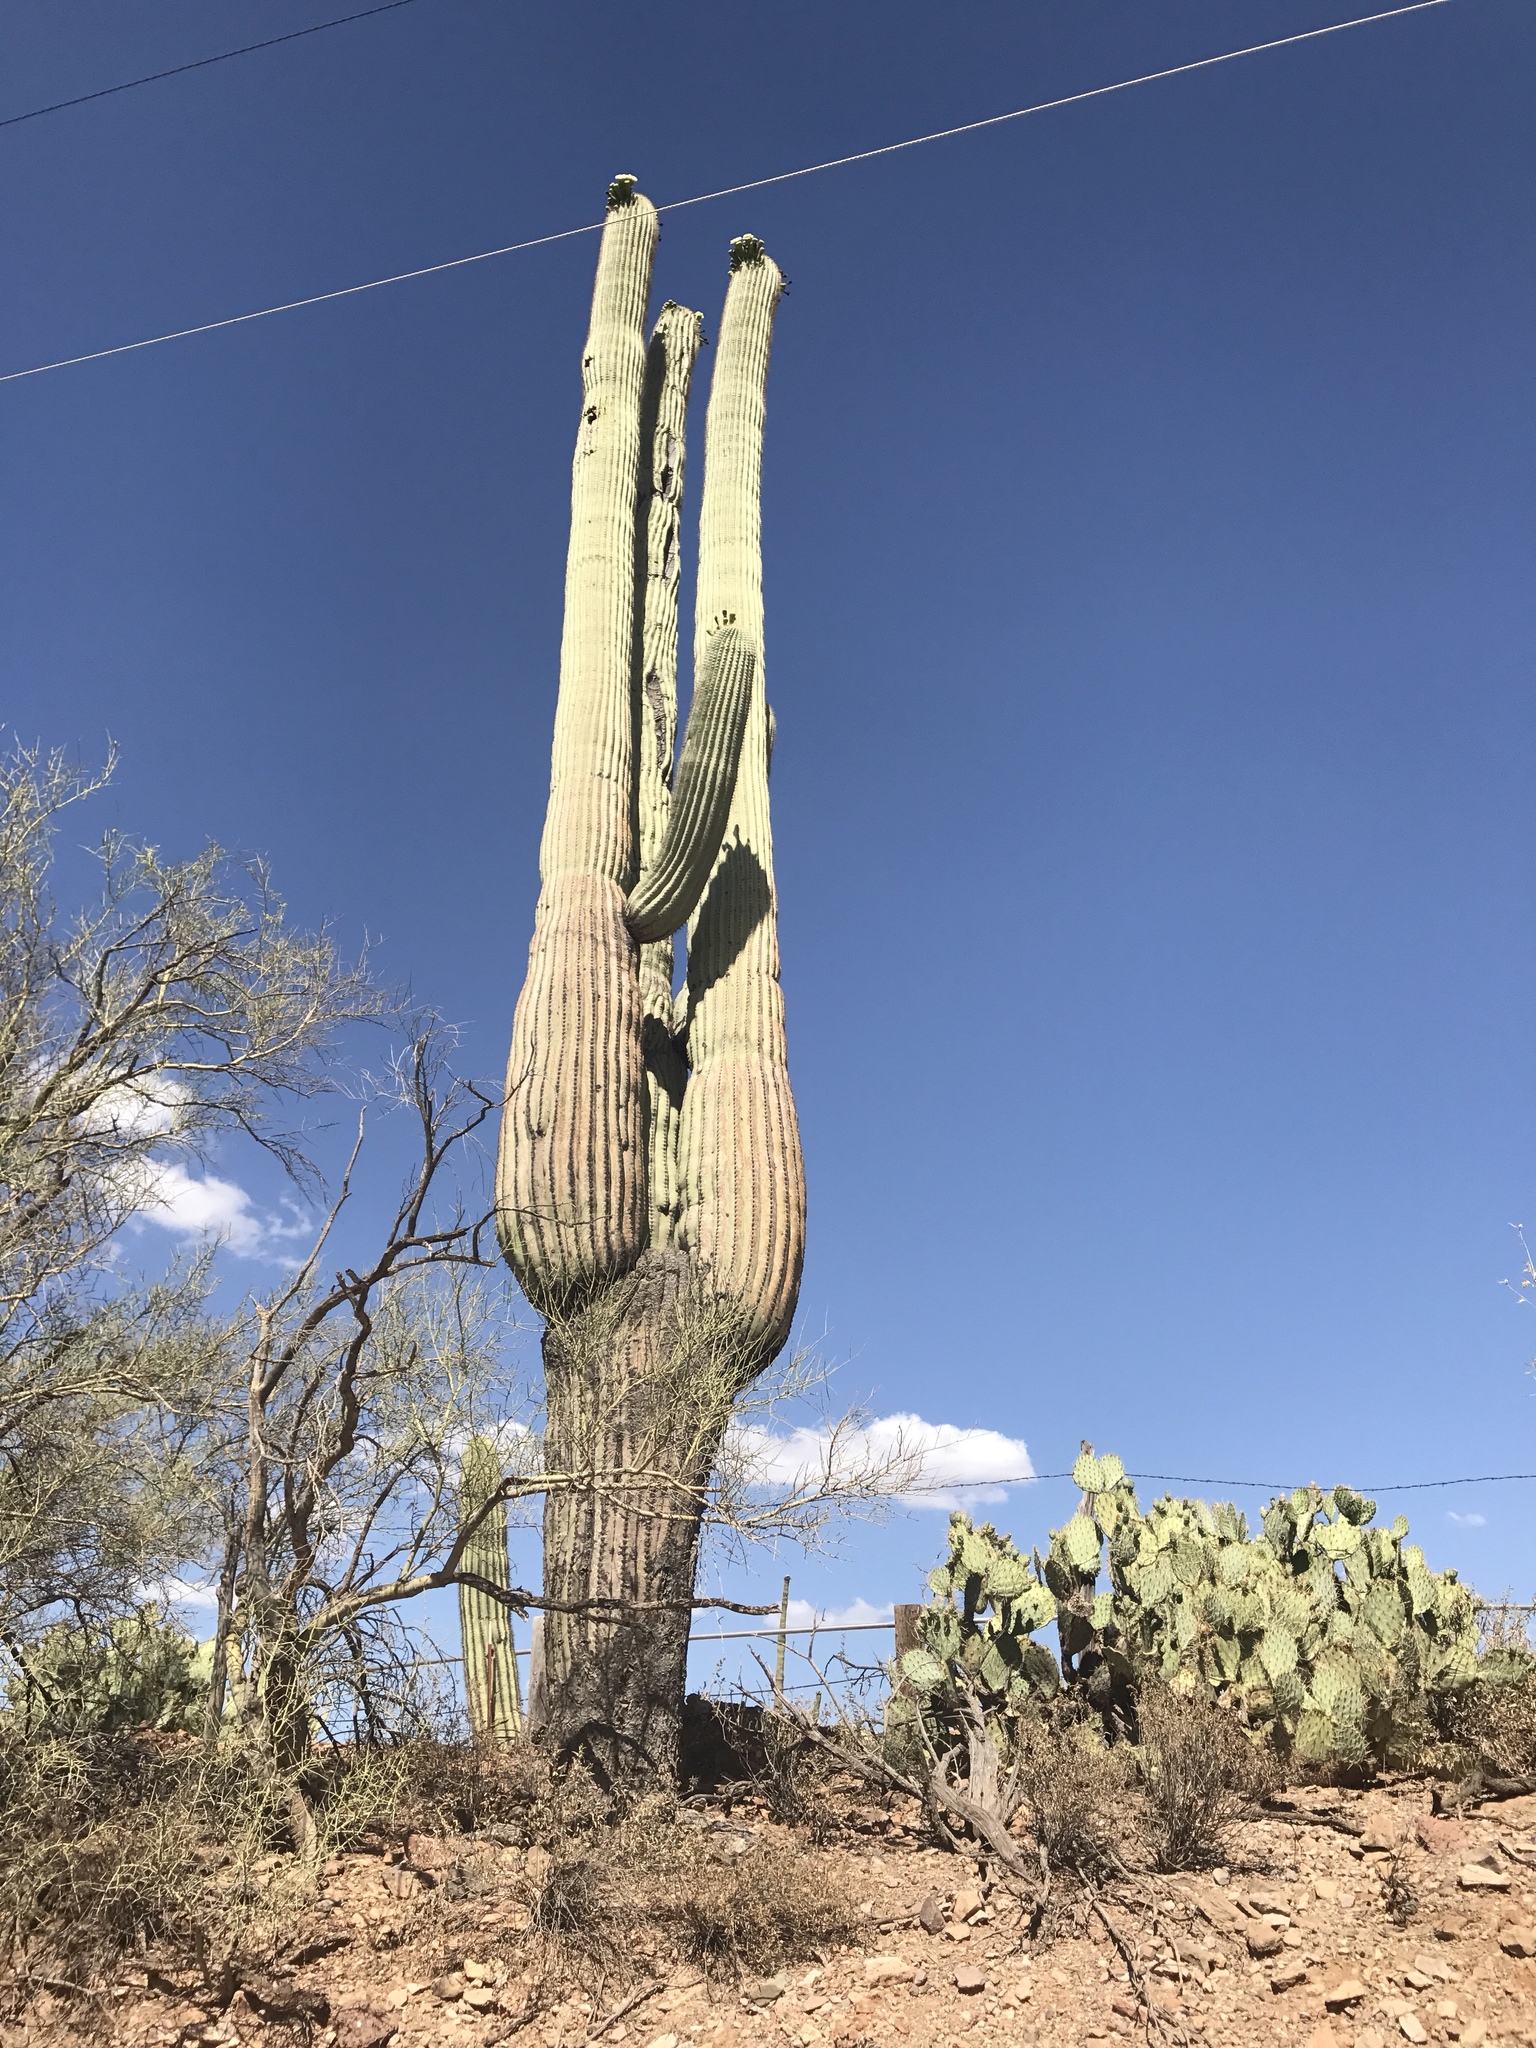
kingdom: Plantae
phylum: Tracheophyta
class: Magnoliopsida
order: Caryophyllales
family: Cactaceae
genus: Carnegiea
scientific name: Carnegiea gigantea
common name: Saguaro
